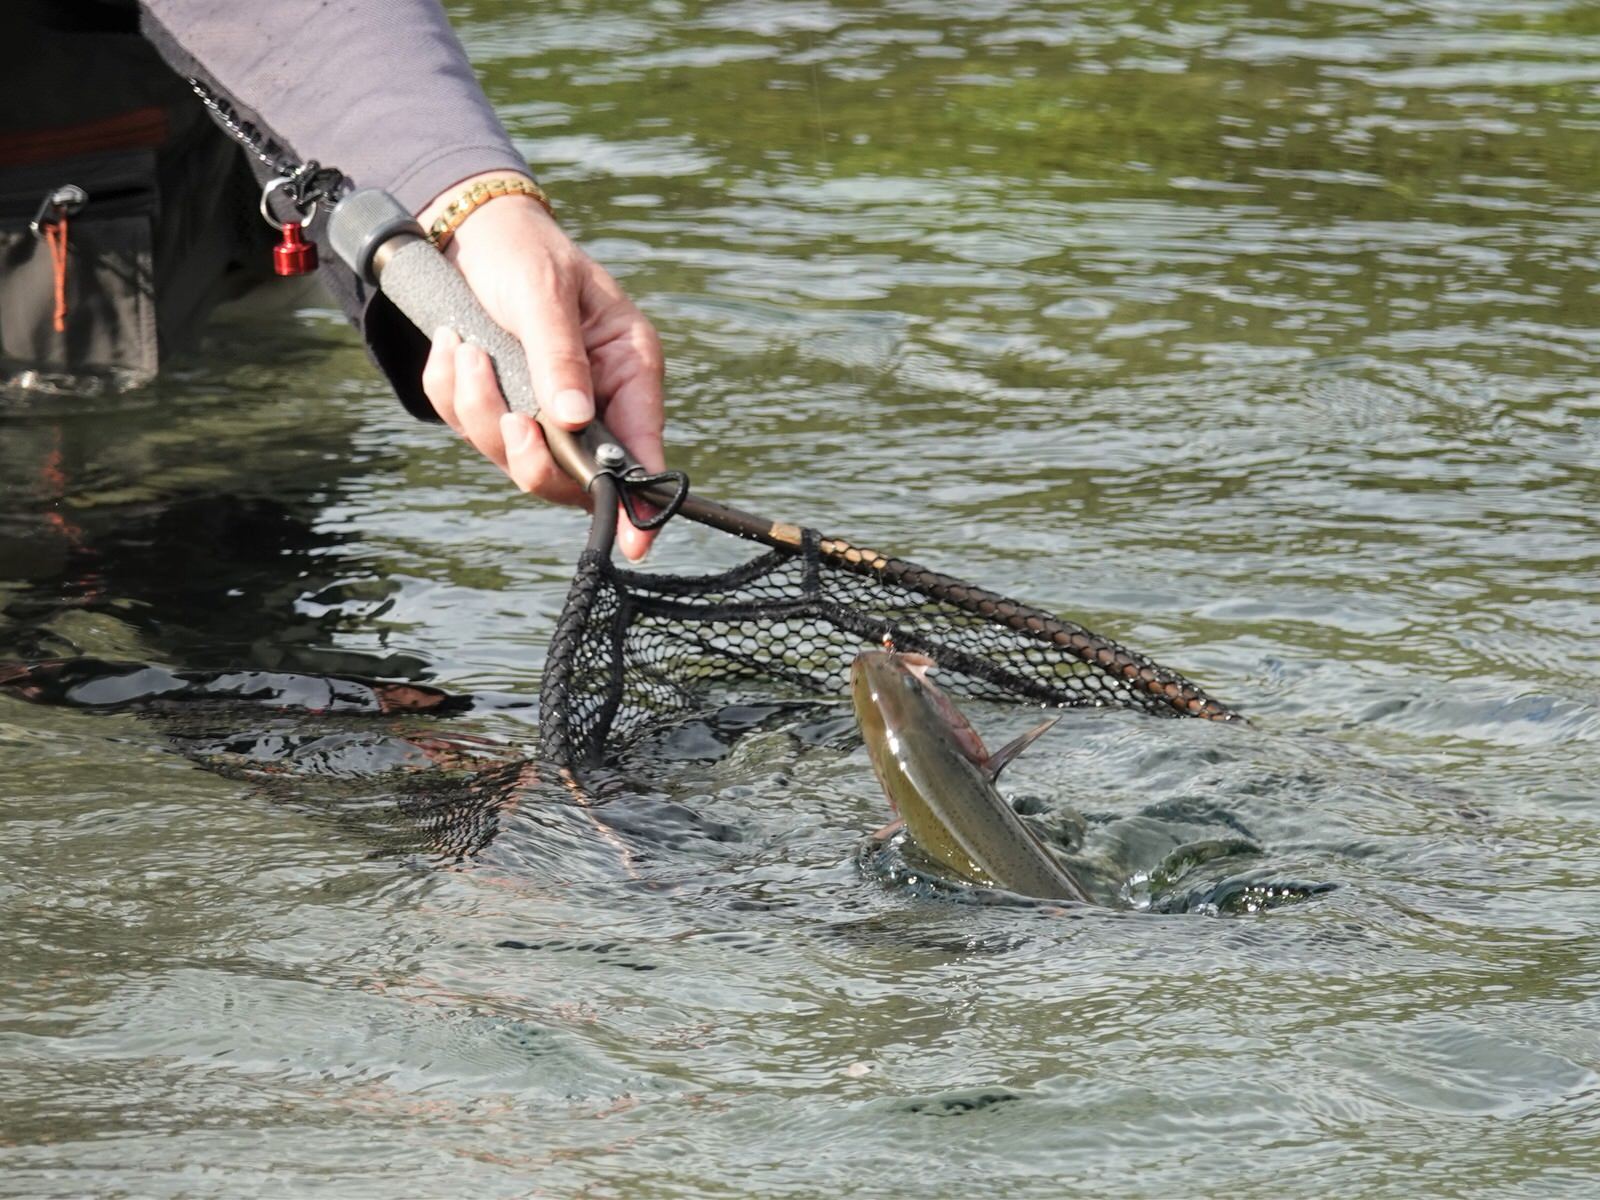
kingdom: Animalia
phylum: Chordata
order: Salmoniformes
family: Salmonidae
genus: Oncorhynchus
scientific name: Oncorhynchus mykiss
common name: Rainbow trout
